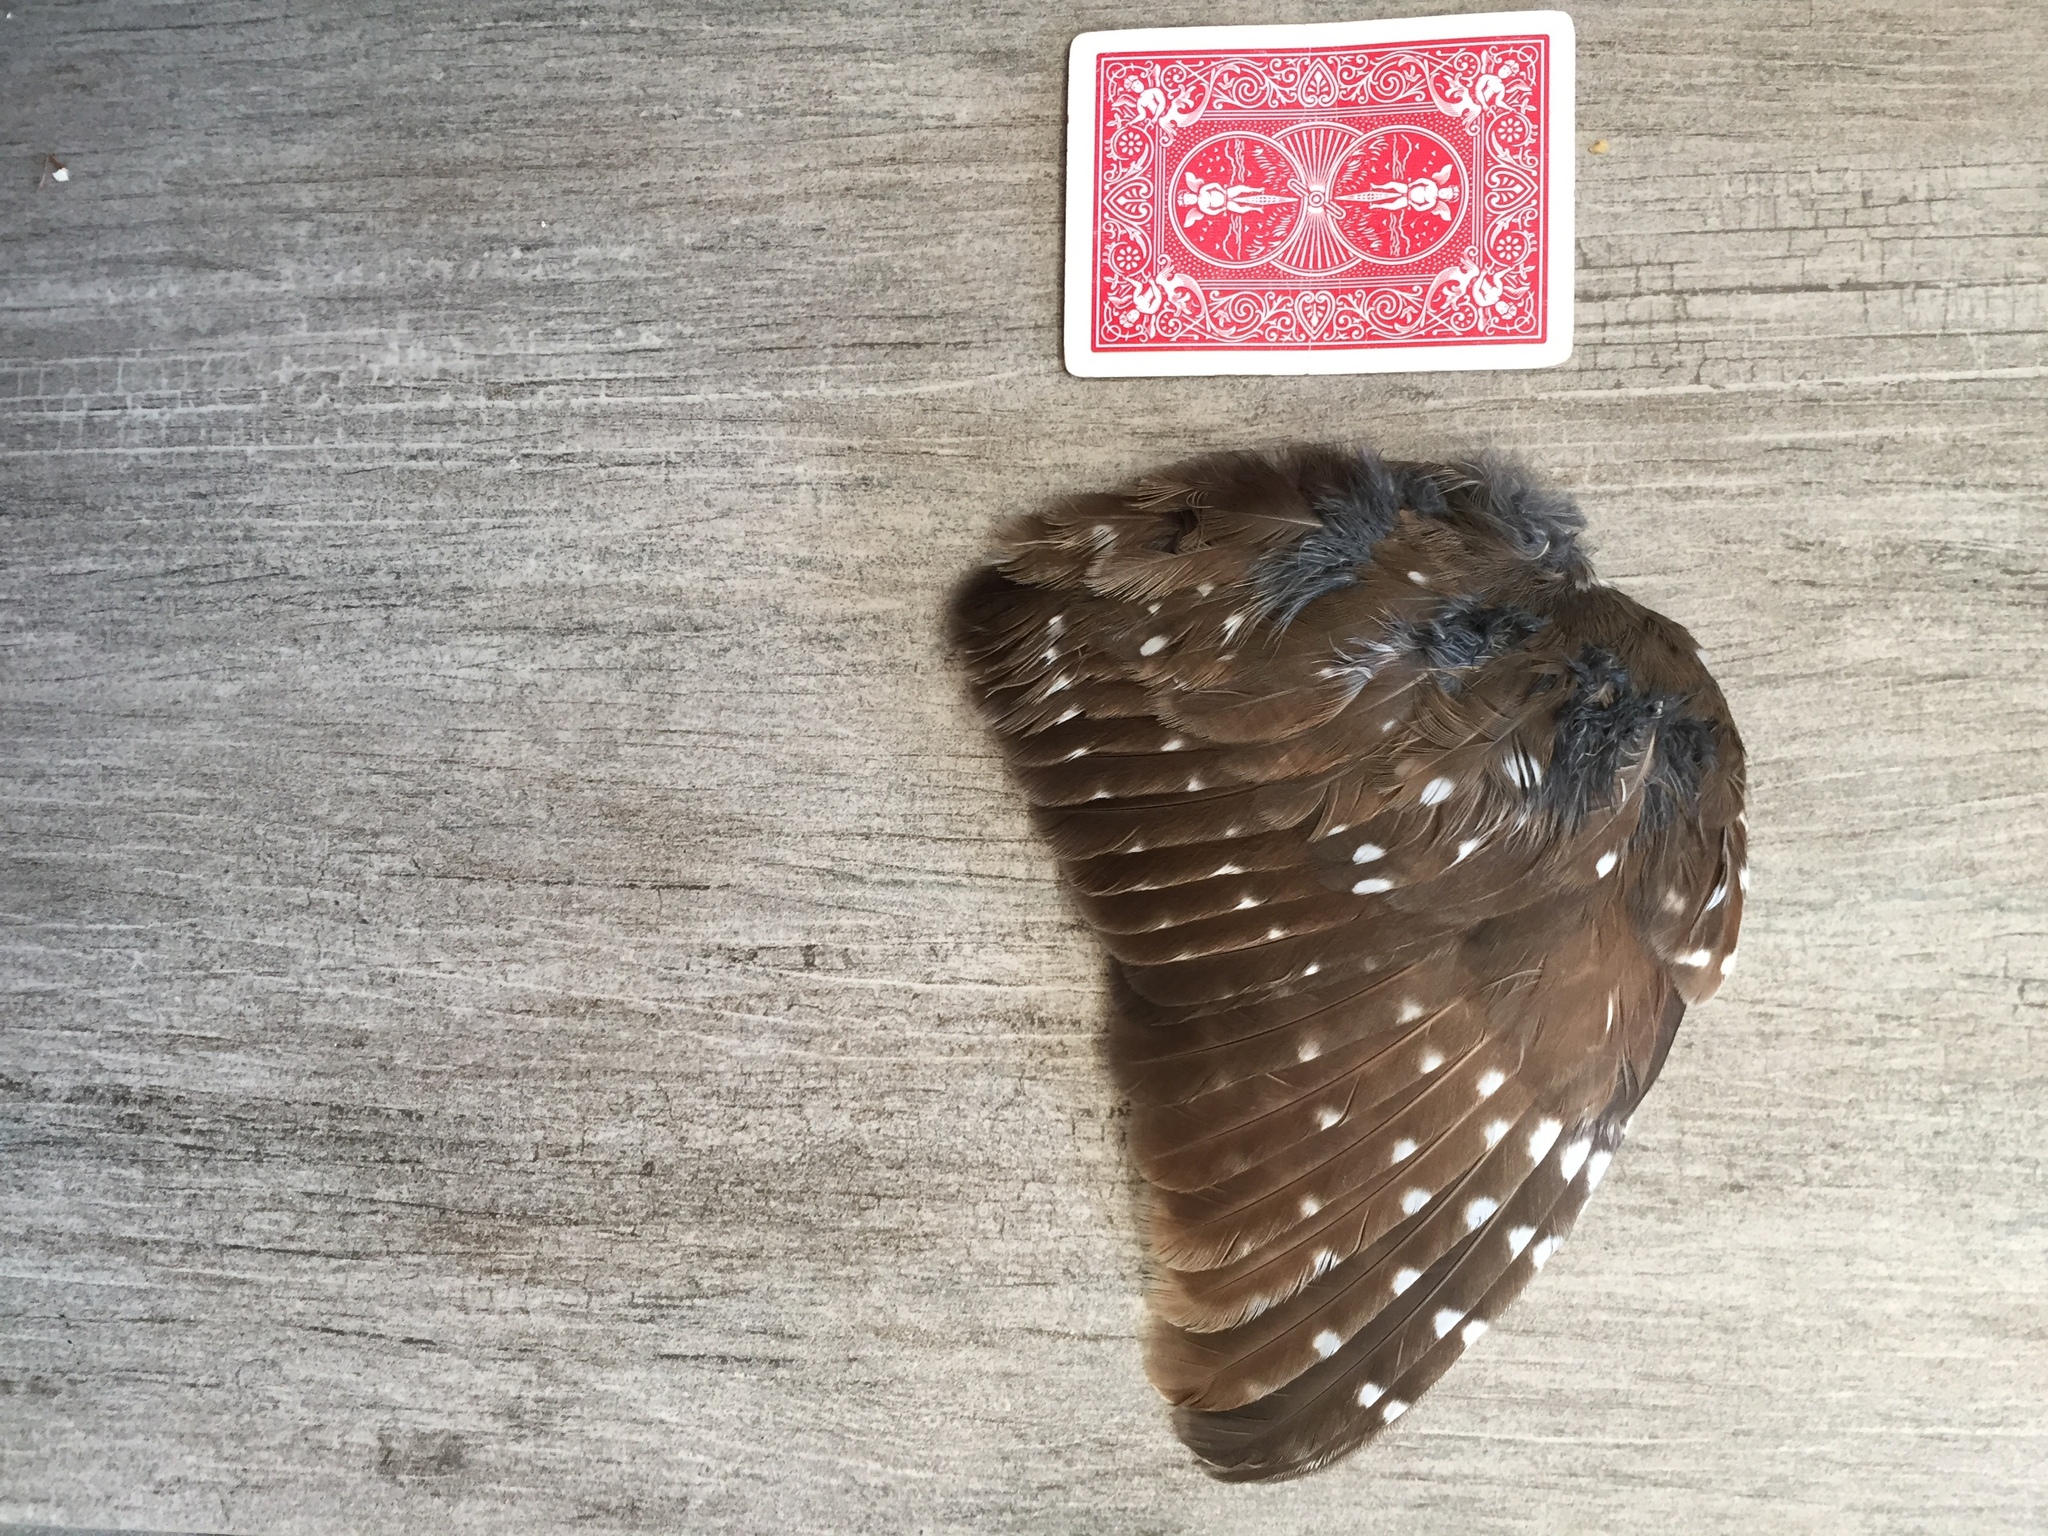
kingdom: Animalia
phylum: Chordata
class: Aves
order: Strigiformes
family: Strigidae
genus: Aegolius
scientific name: Aegolius acadicus
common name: Northern saw-whet owl
